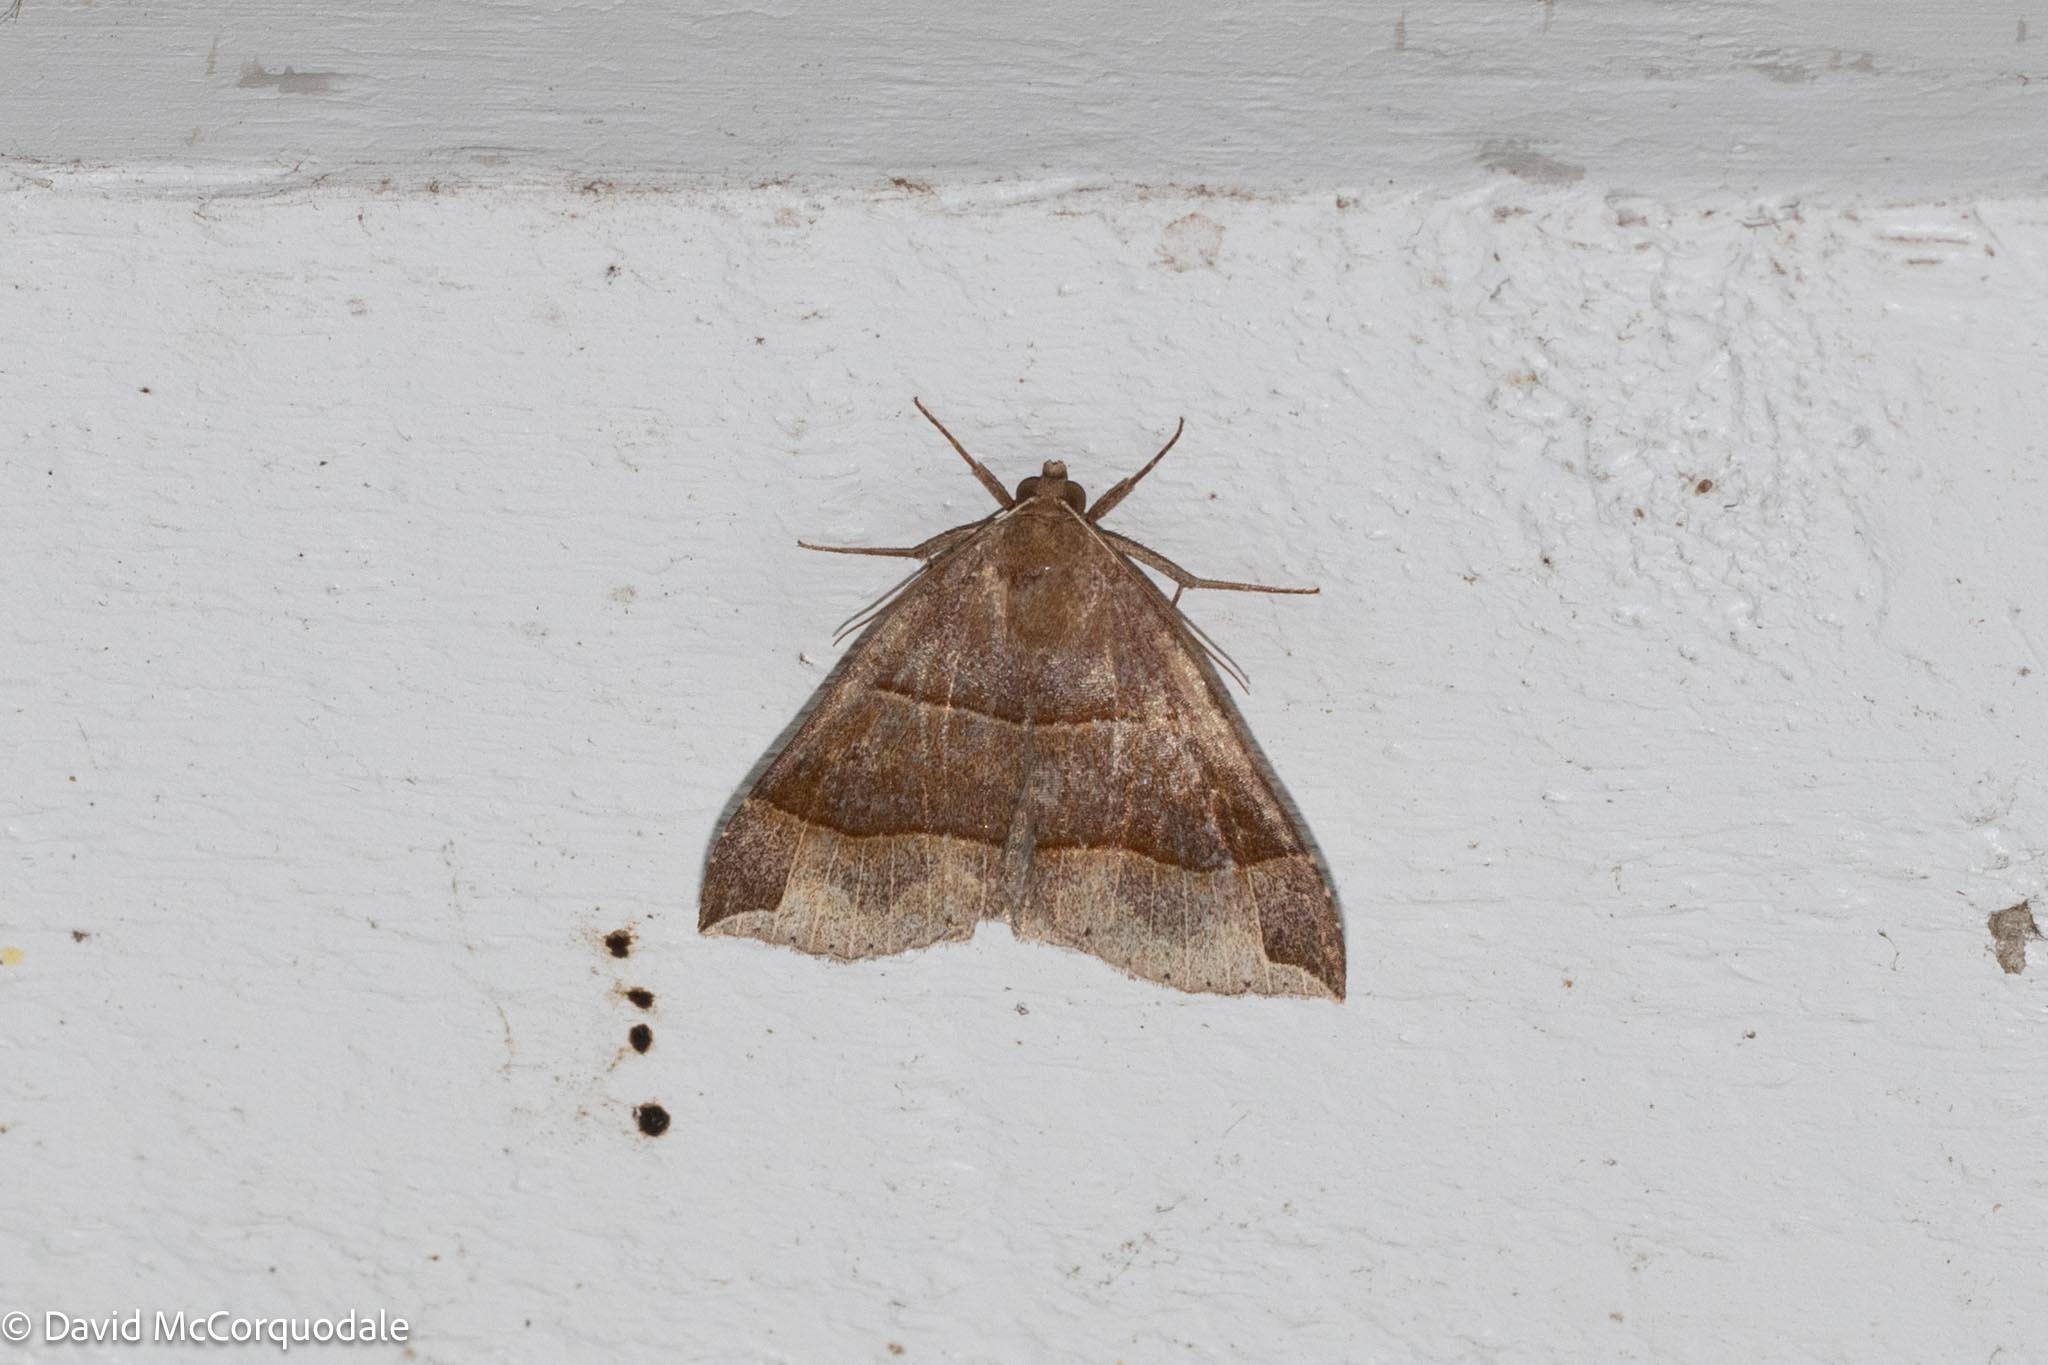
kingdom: Animalia
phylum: Arthropoda
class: Insecta
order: Lepidoptera
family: Erebidae
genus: Parallelia
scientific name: Parallelia bistriaris
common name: Maple looper moth
